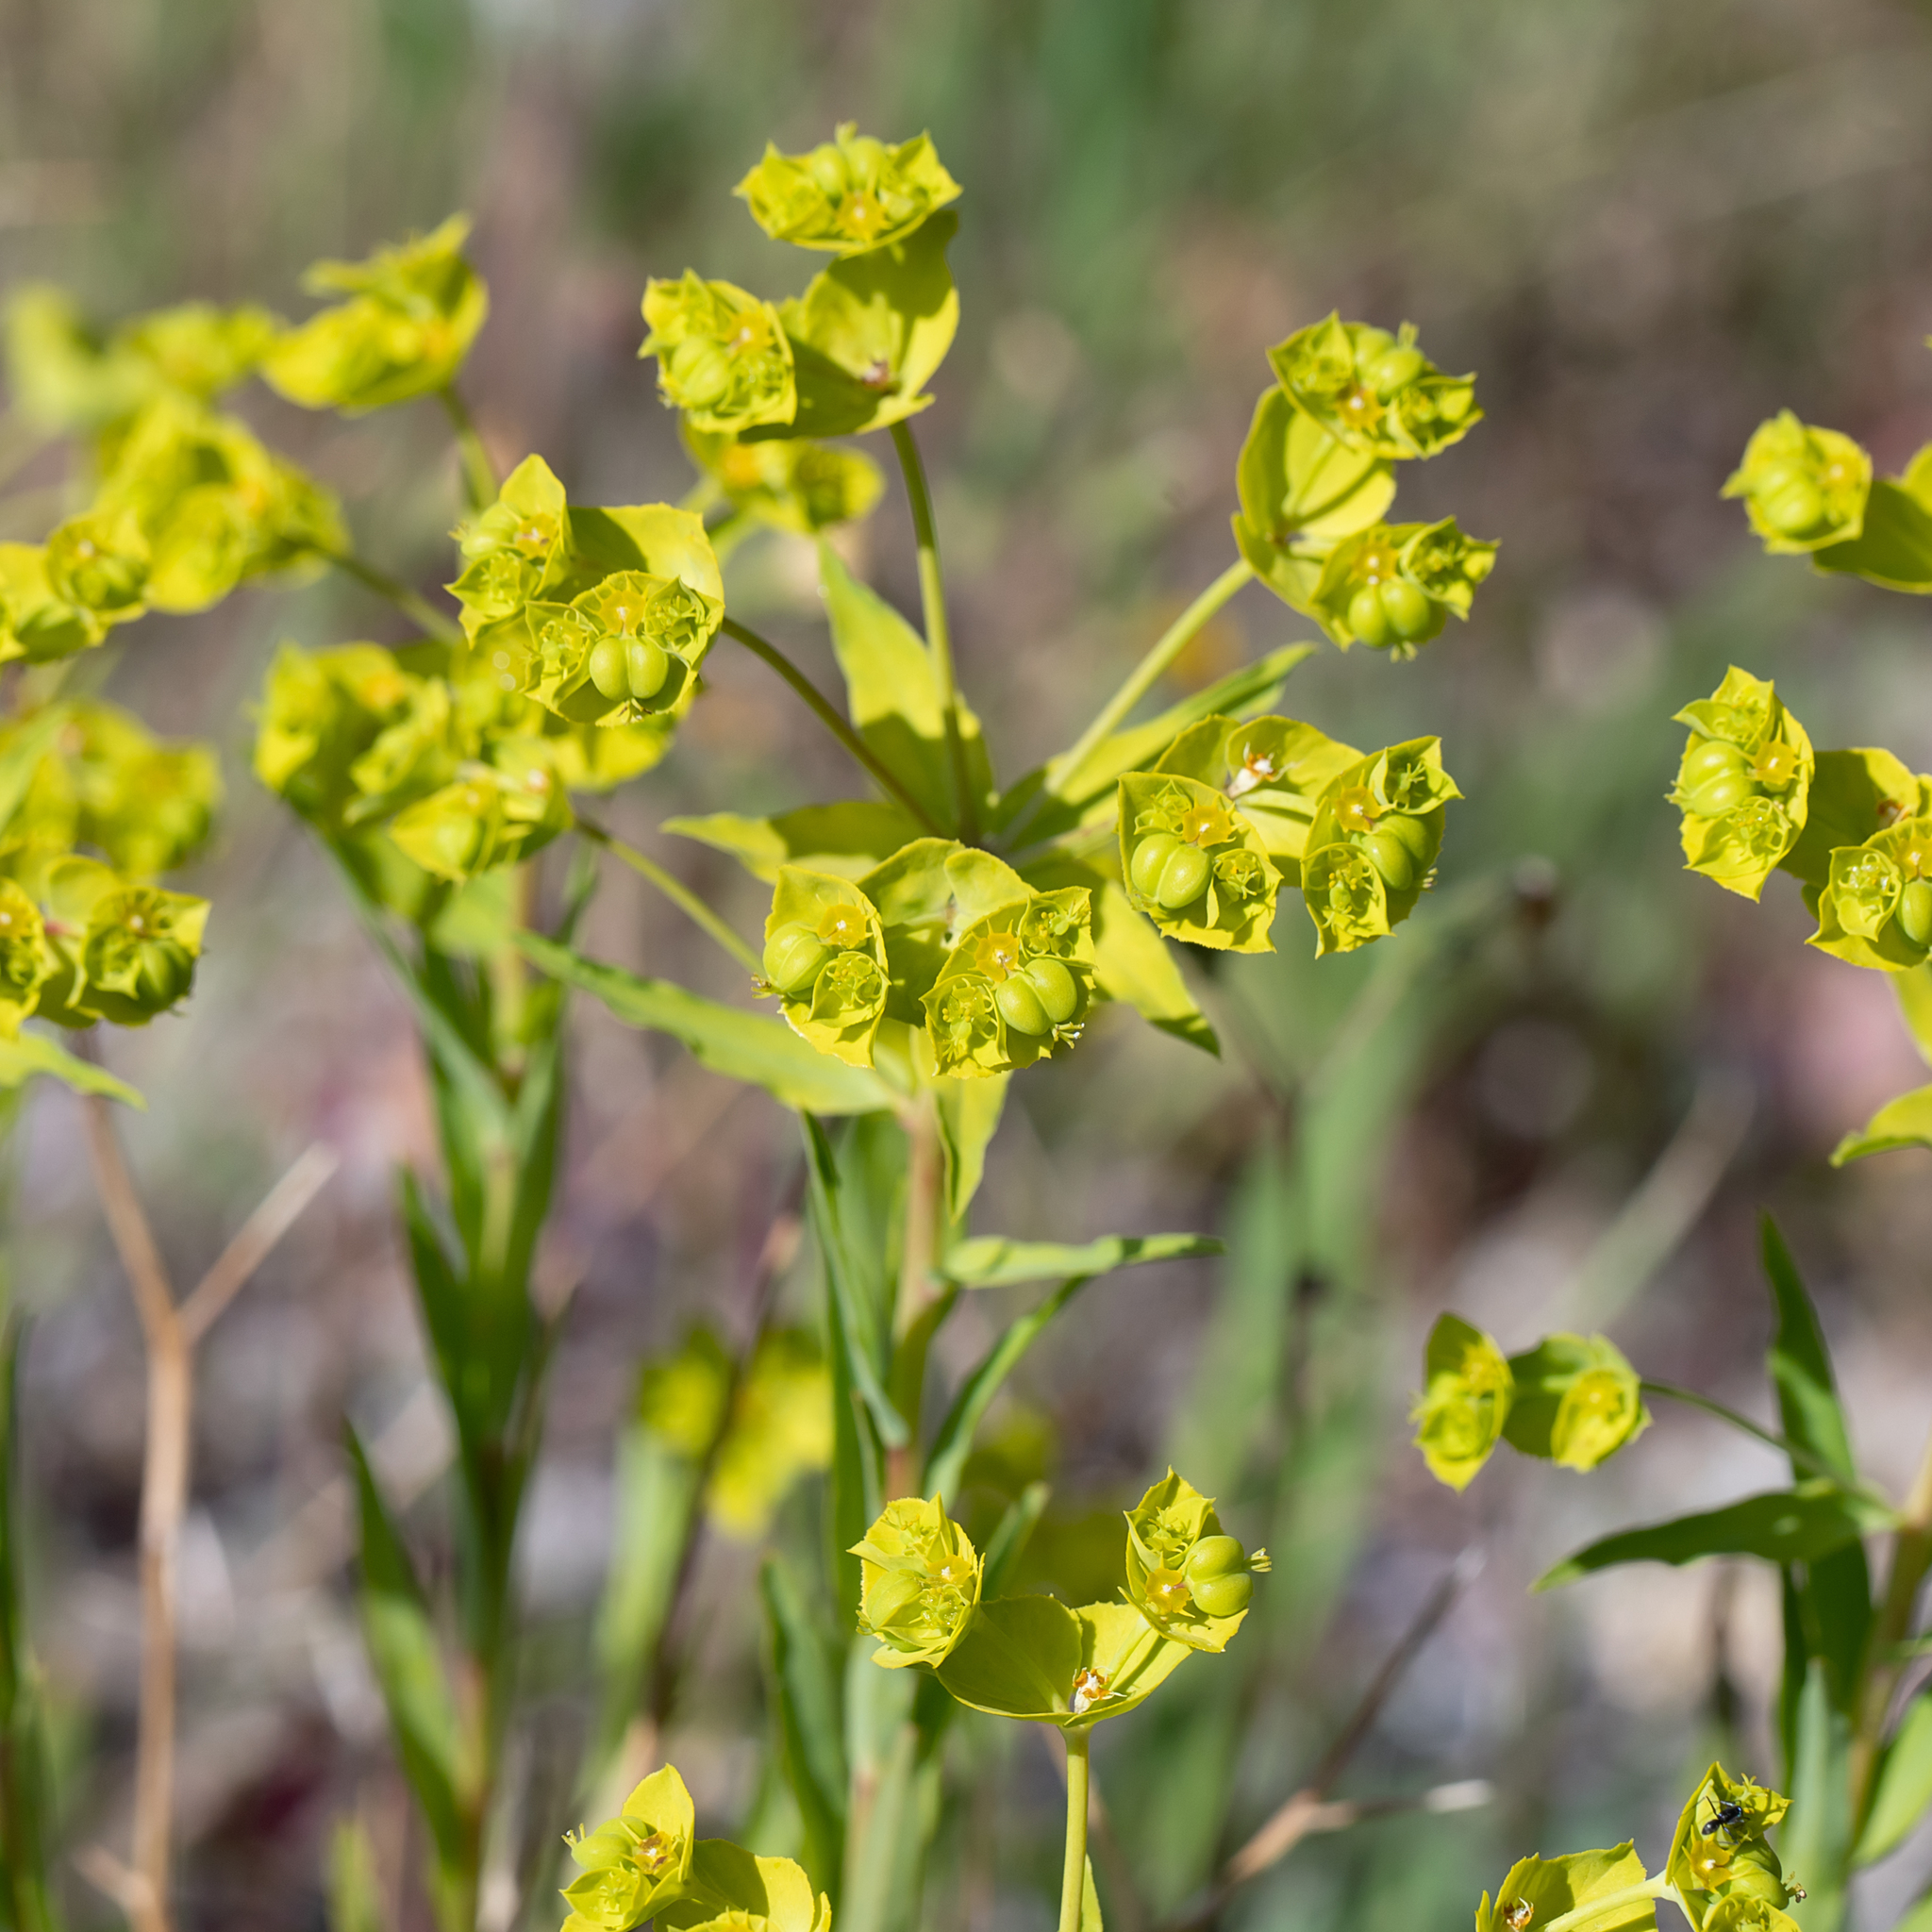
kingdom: Plantae
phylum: Tracheophyta
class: Magnoliopsida
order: Malpighiales
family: Euphorbiaceae
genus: Euphorbia
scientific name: Euphorbia terracina
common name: Geraldton carnation weed
